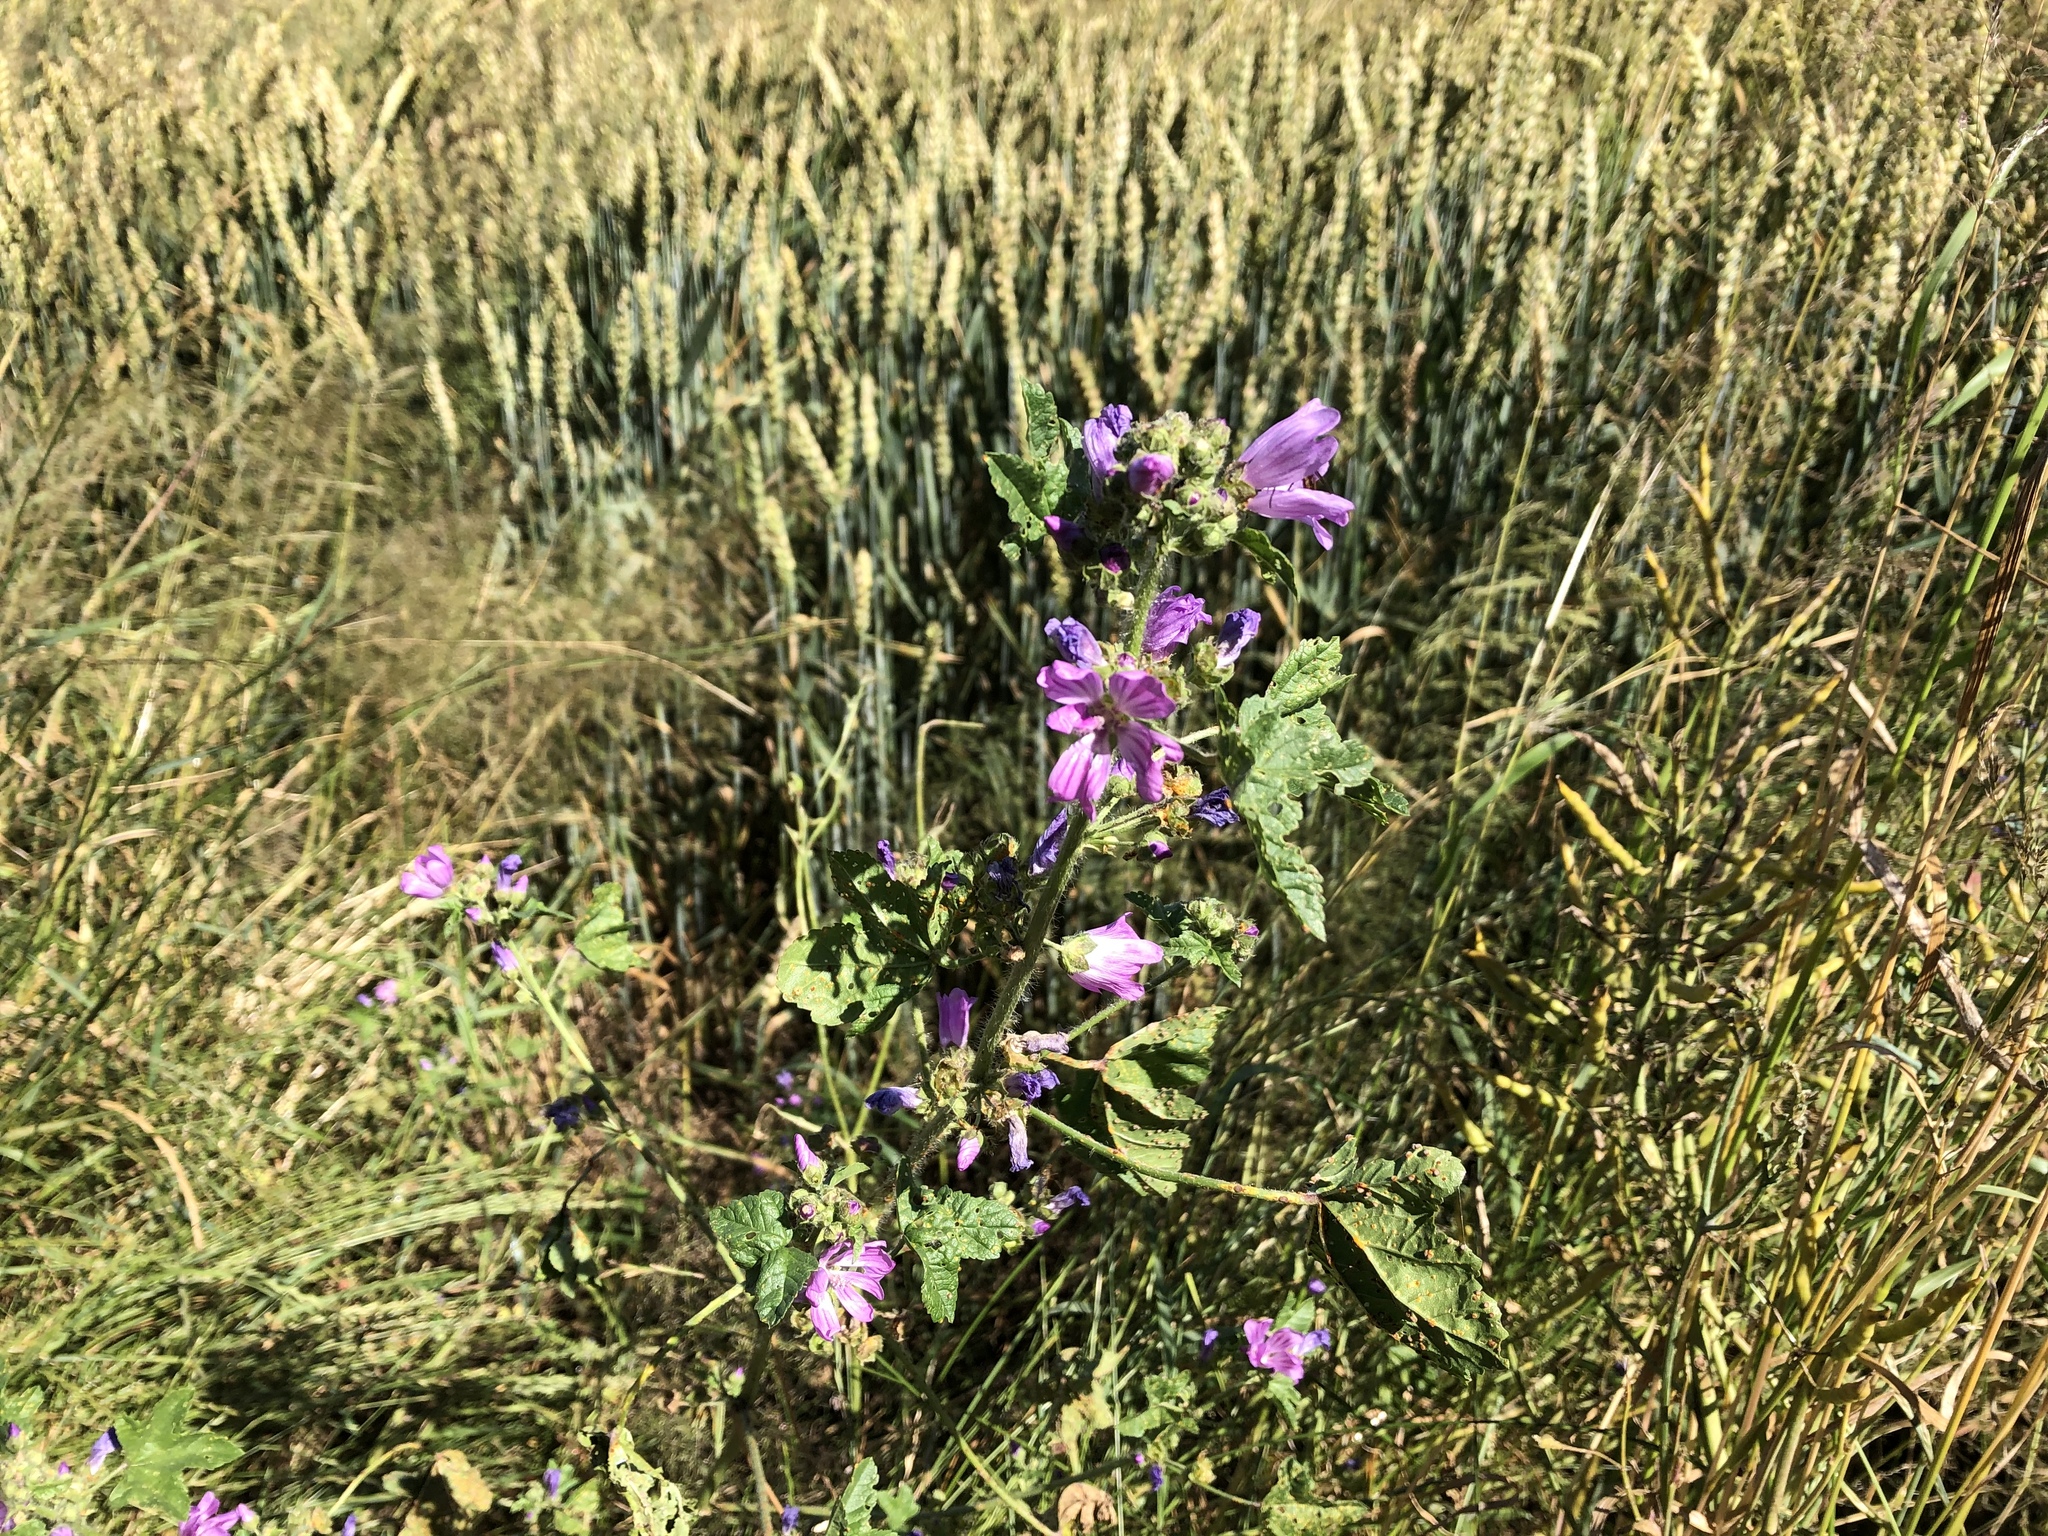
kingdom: Plantae
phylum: Tracheophyta
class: Magnoliopsida
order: Malvales
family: Malvaceae
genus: Malva
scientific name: Malva sylvestris
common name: Common mallow
